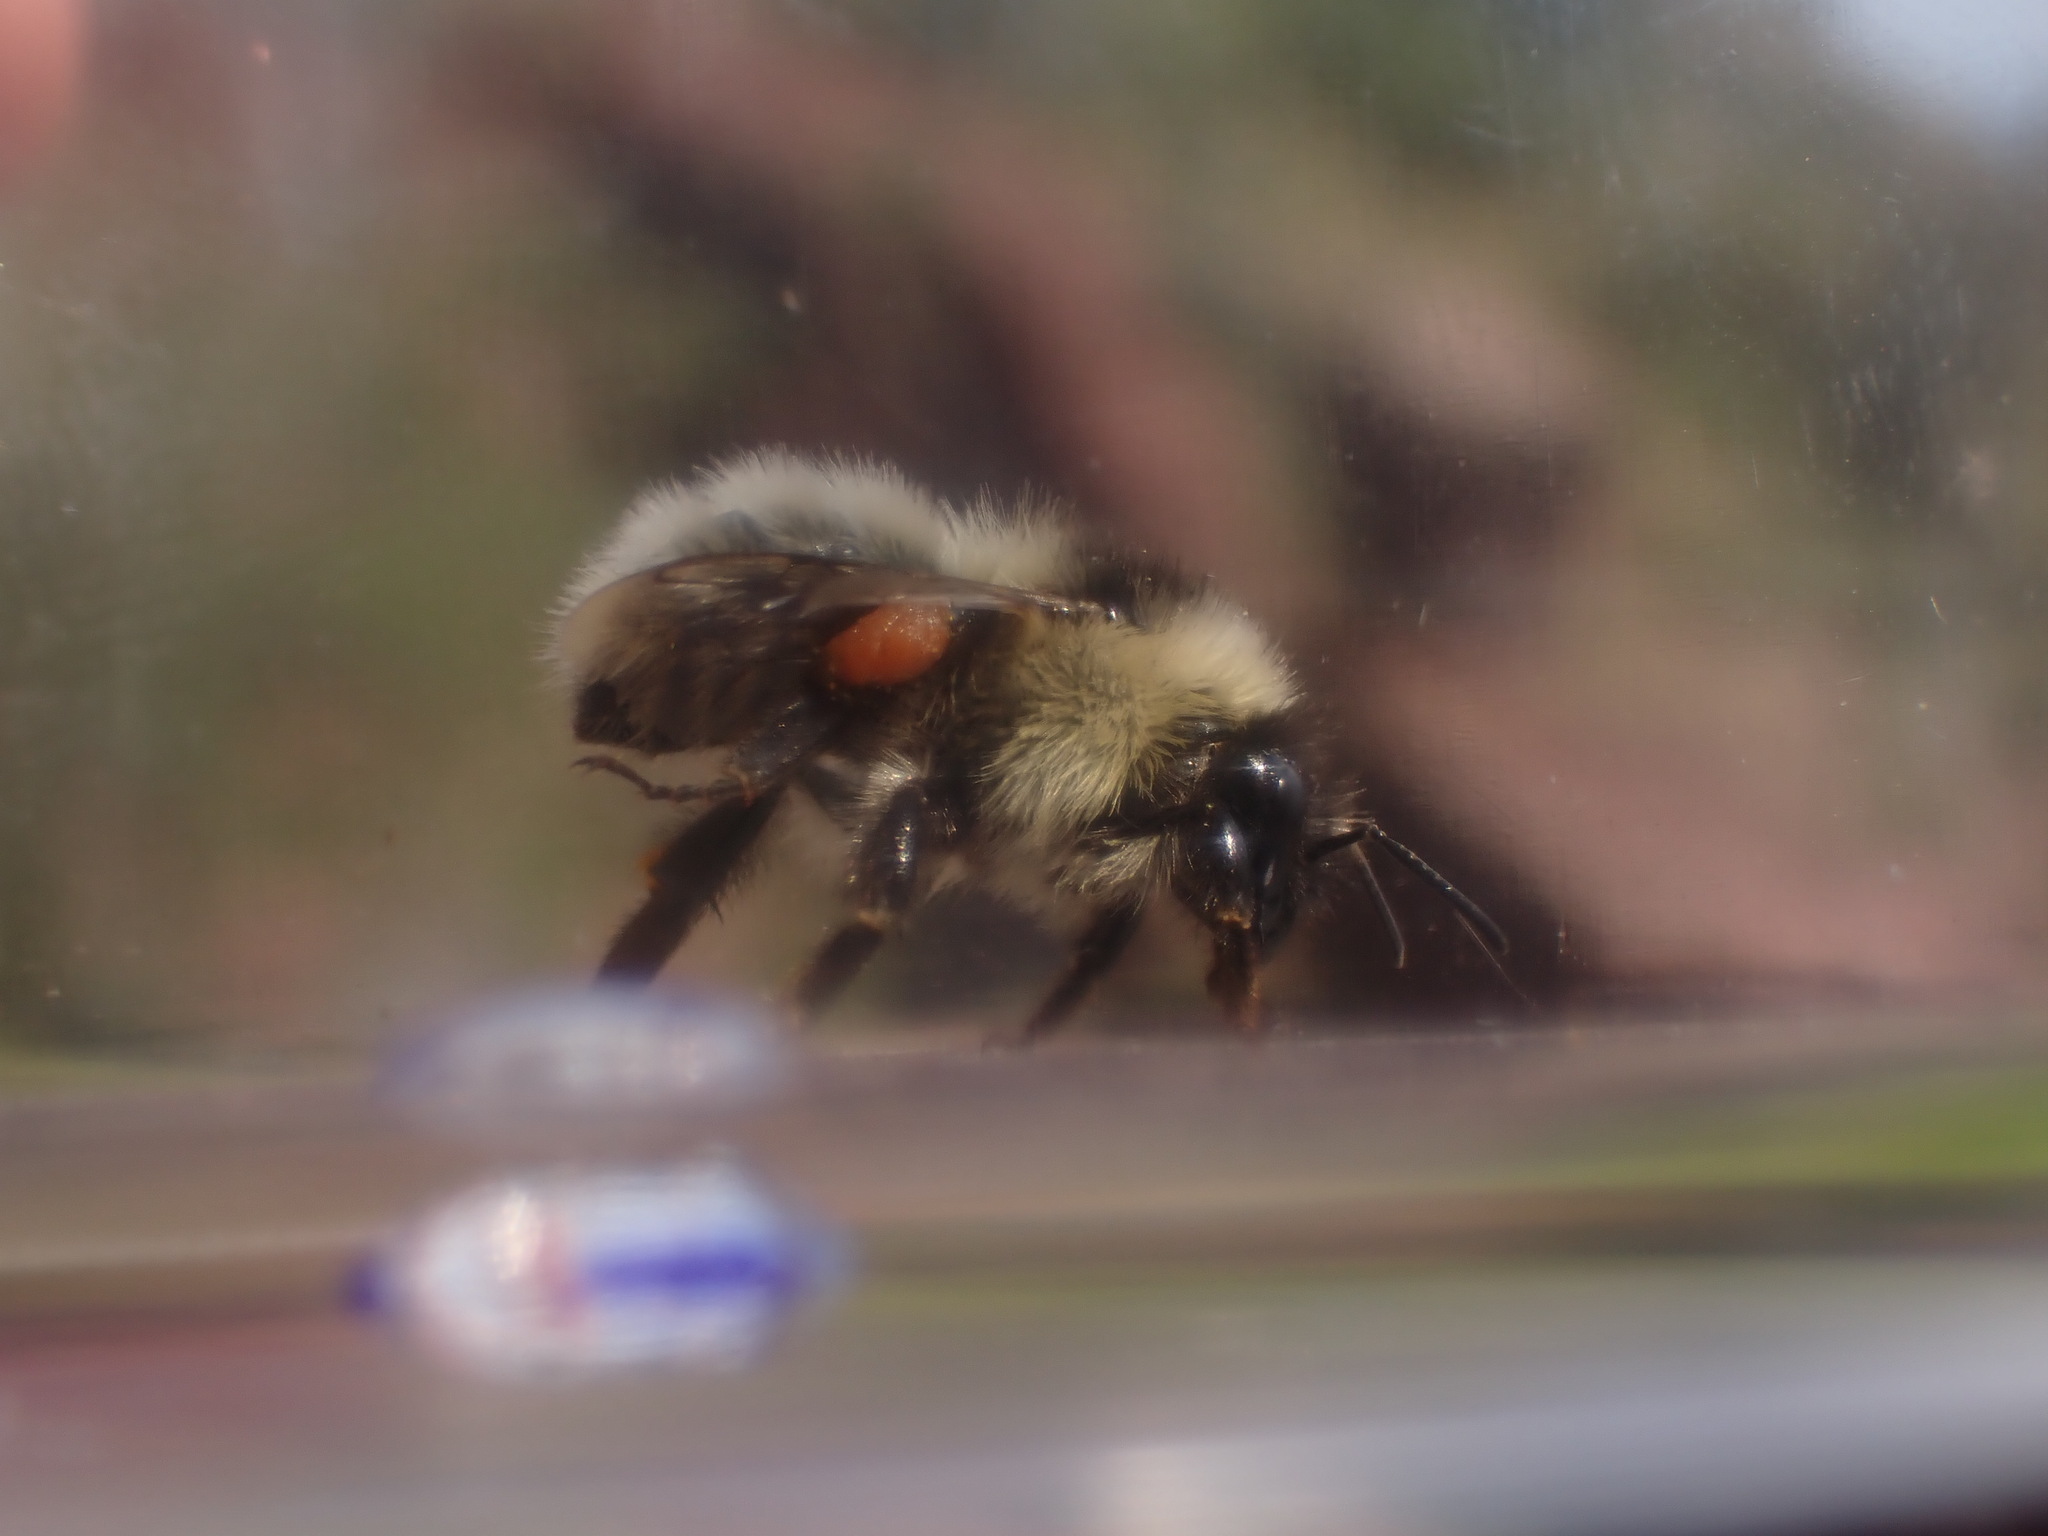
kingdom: Animalia
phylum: Arthropoda
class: Insecta
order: Hymenoptera
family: Apidae
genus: Bombus
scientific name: Bombus veteranus
